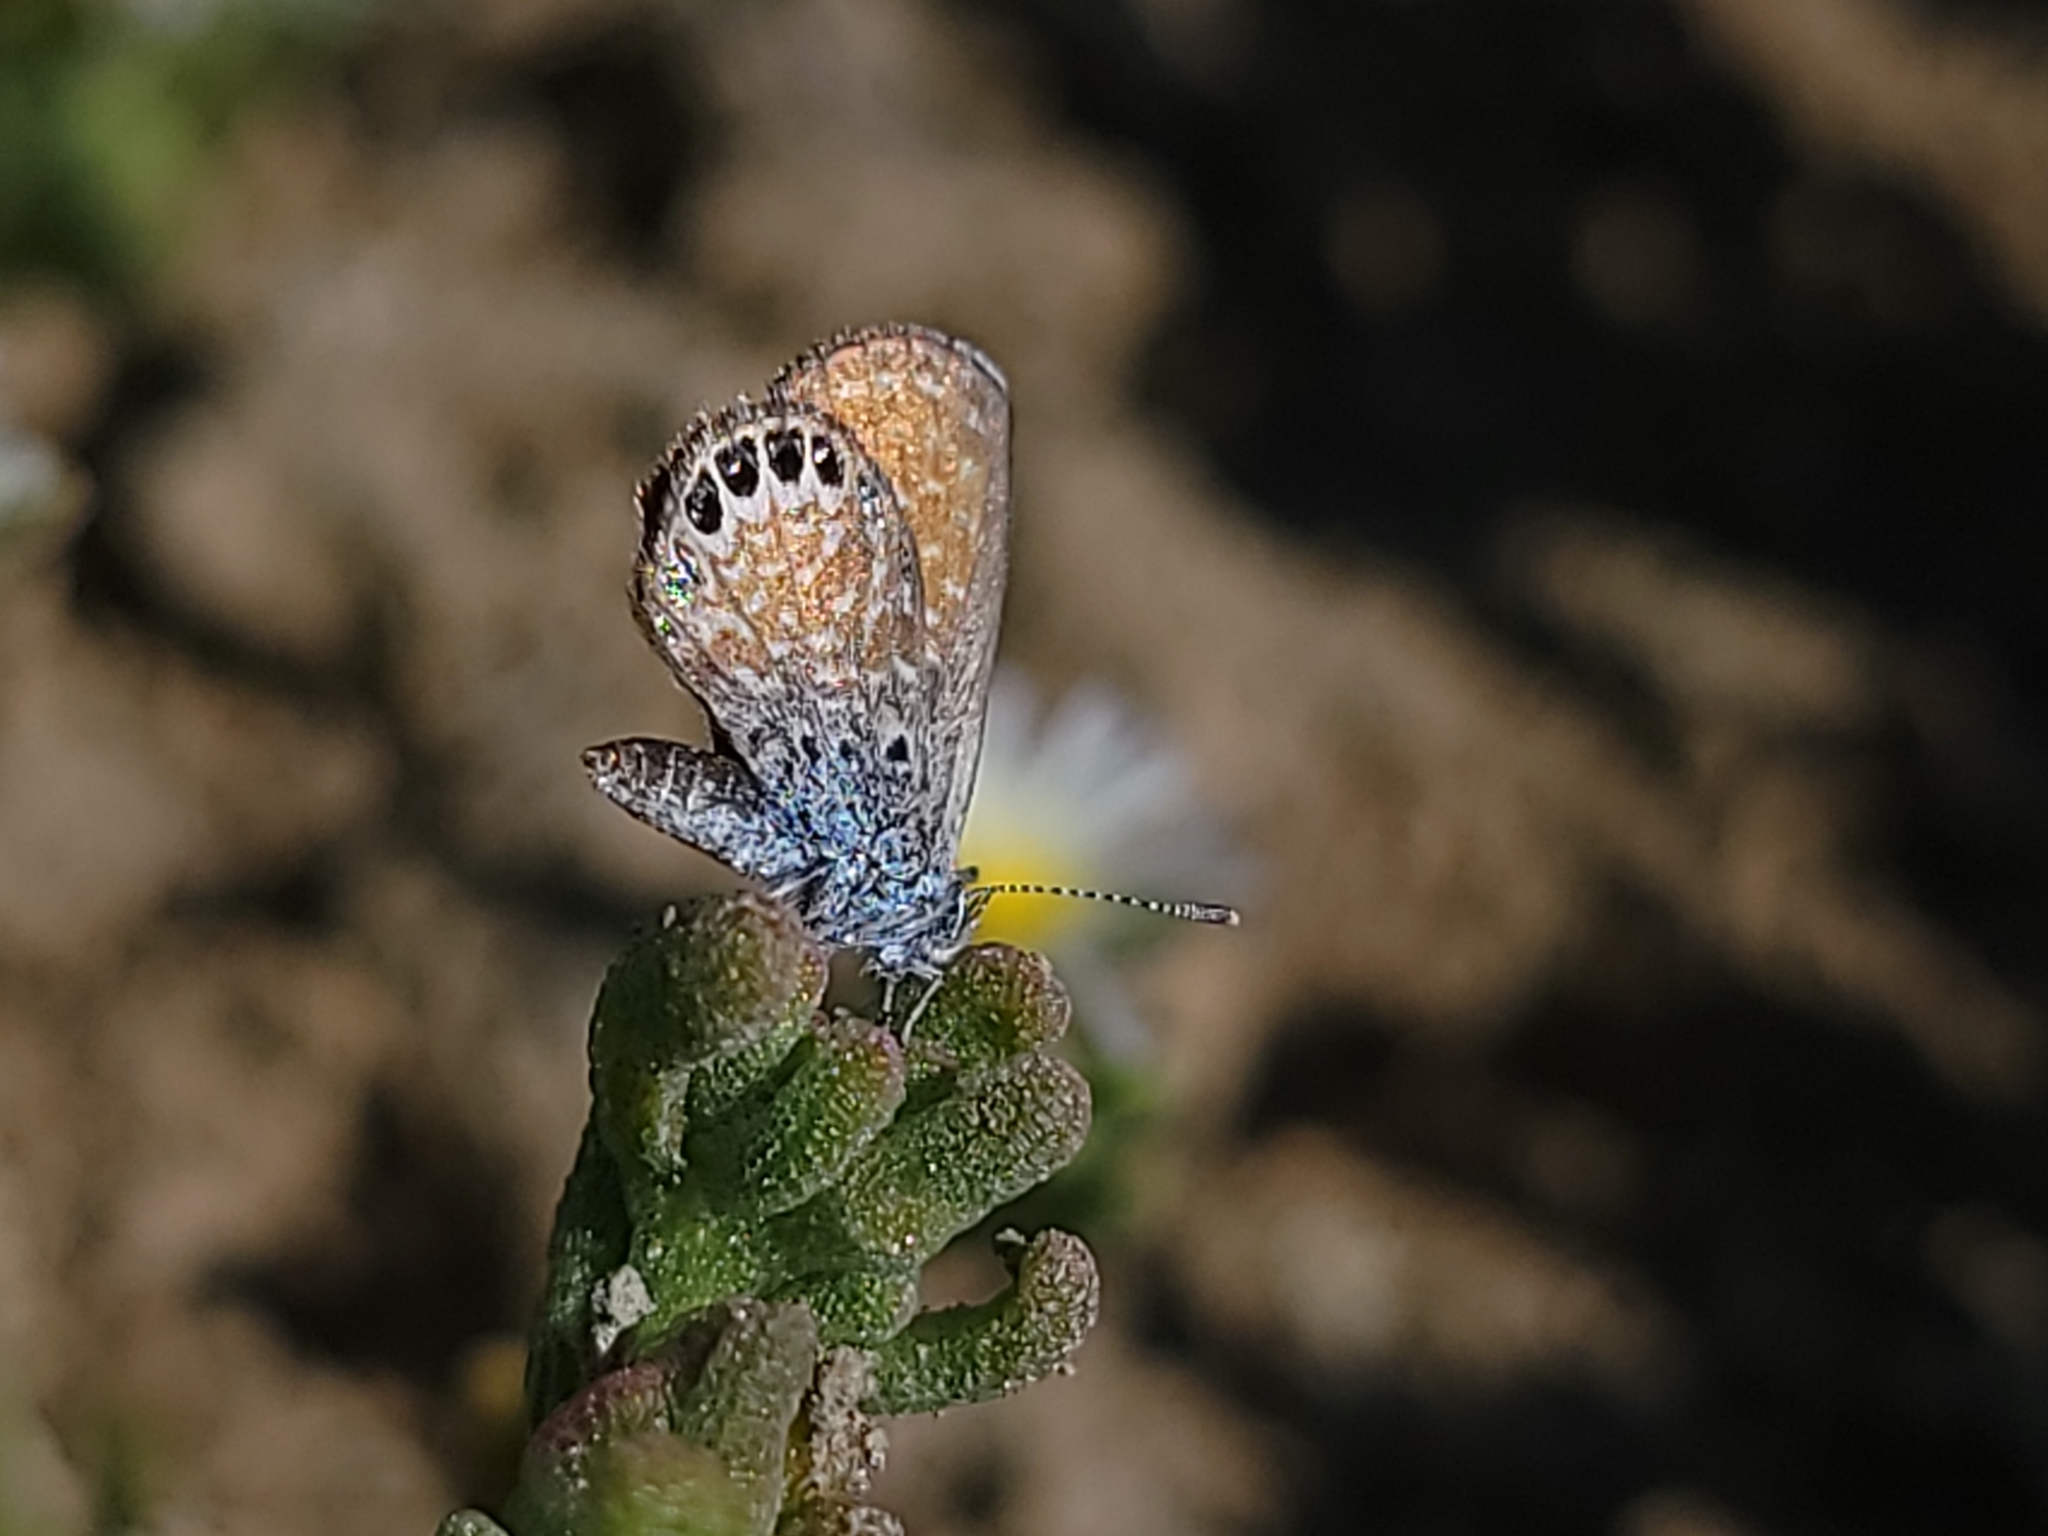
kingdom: Animalia
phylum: Arthropoda
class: Insecta
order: Lepidoptera
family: Lycaenidae
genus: Brephidium
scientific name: Brephidium exilis
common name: Pygmy blue
